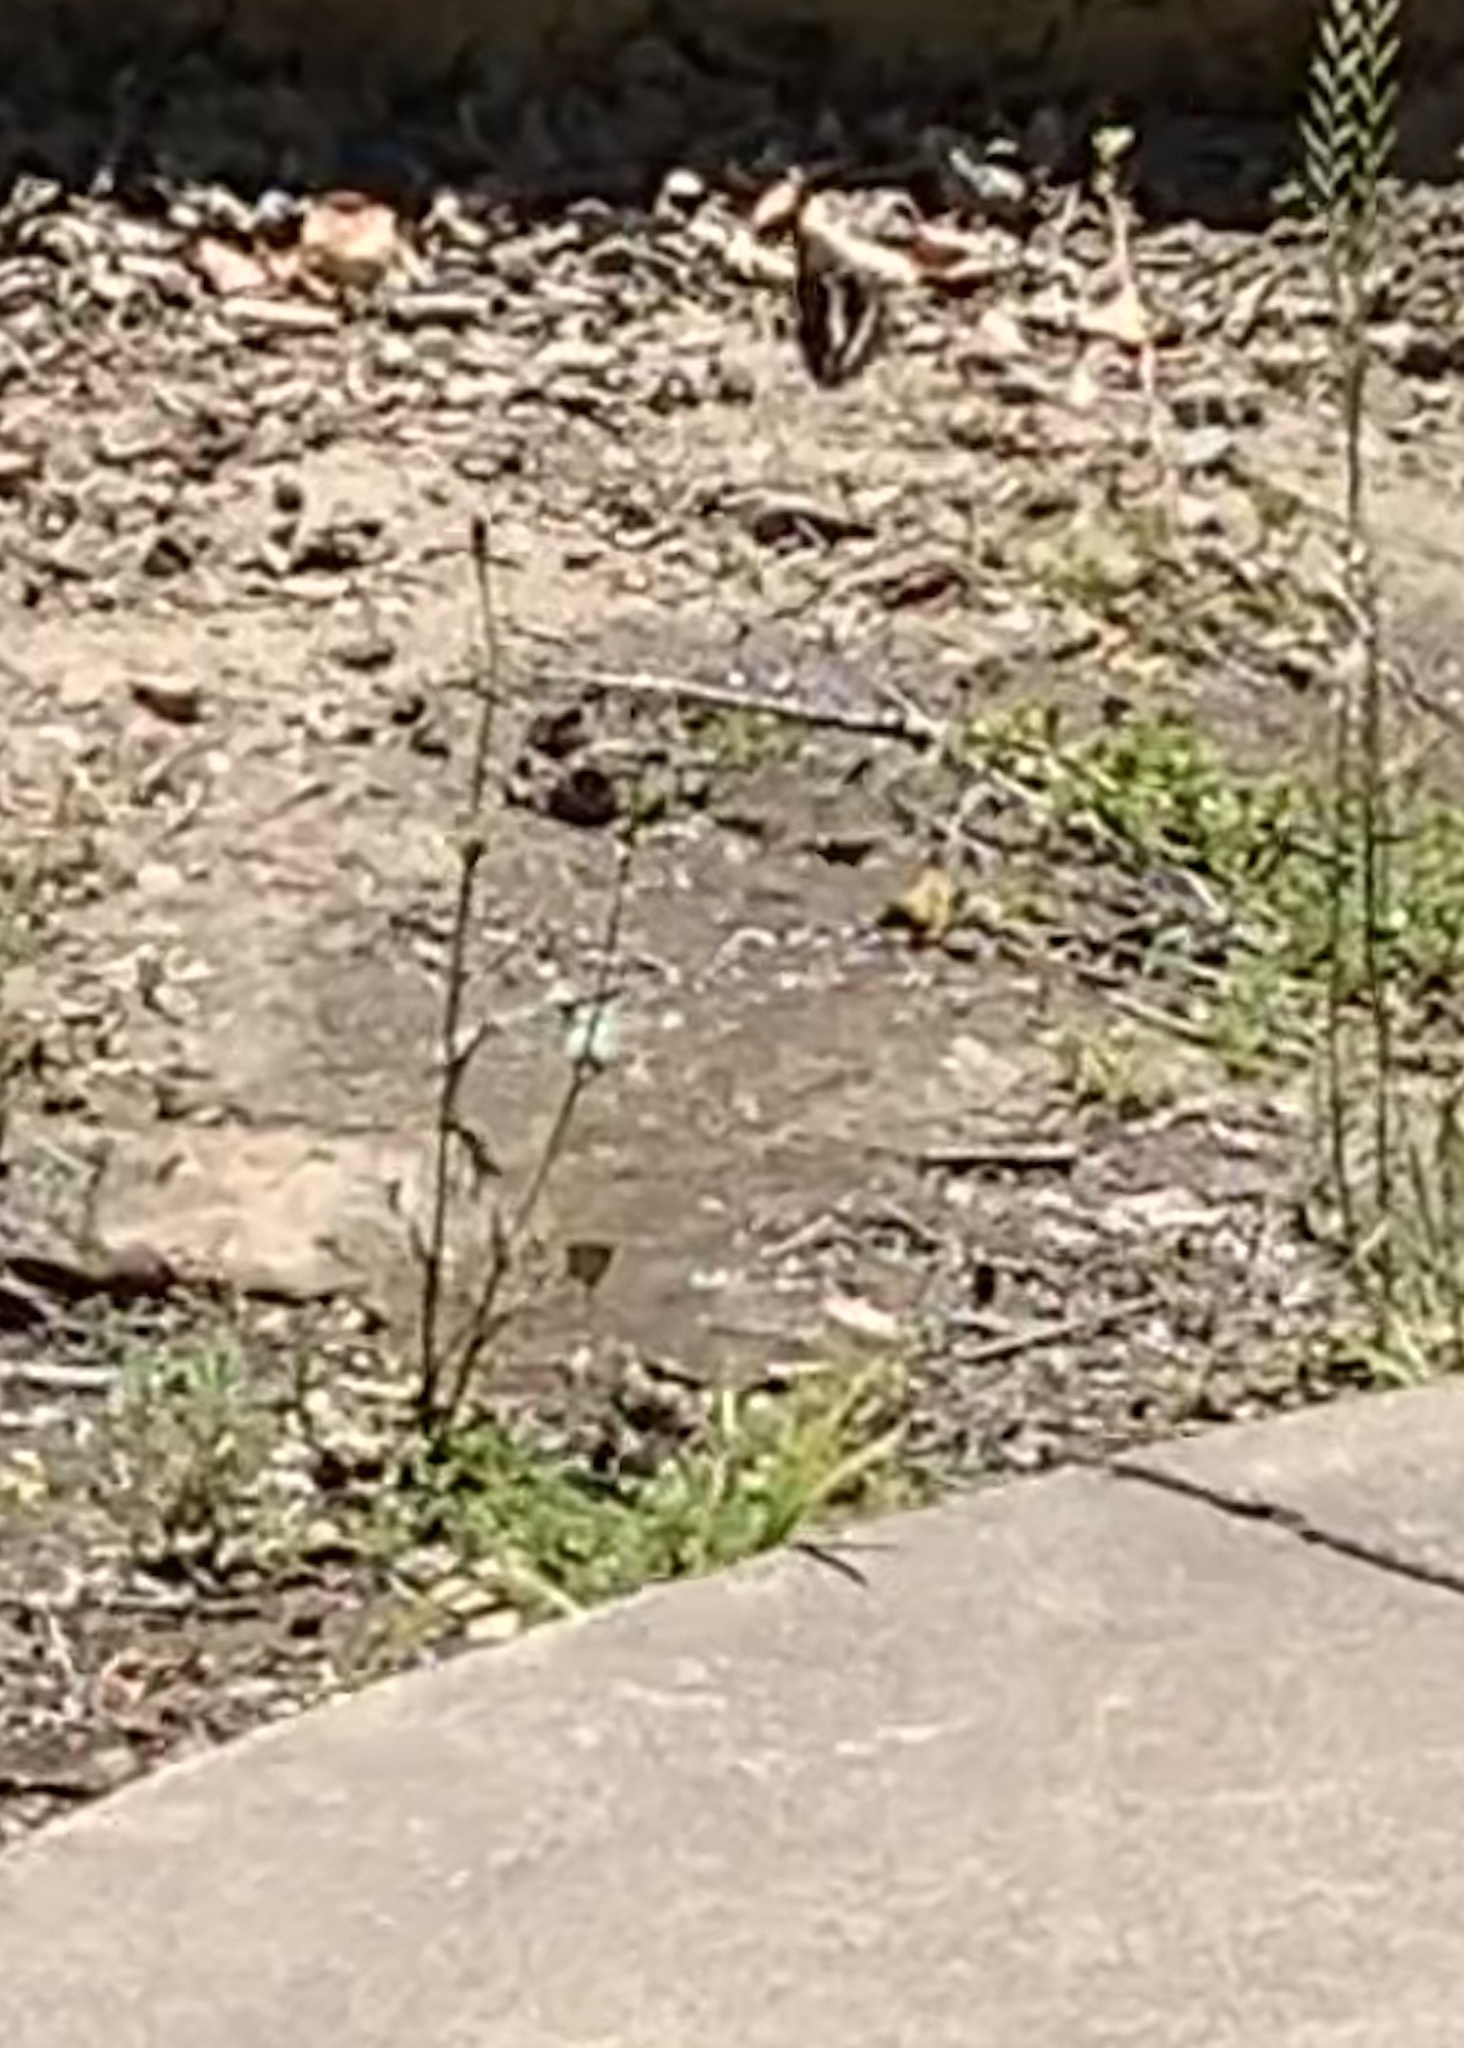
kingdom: Animalia
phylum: Arthropoda
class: Insecta
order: Lepidoptera
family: Nymphalidae
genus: Limenitis
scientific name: Limenitis bredowii
